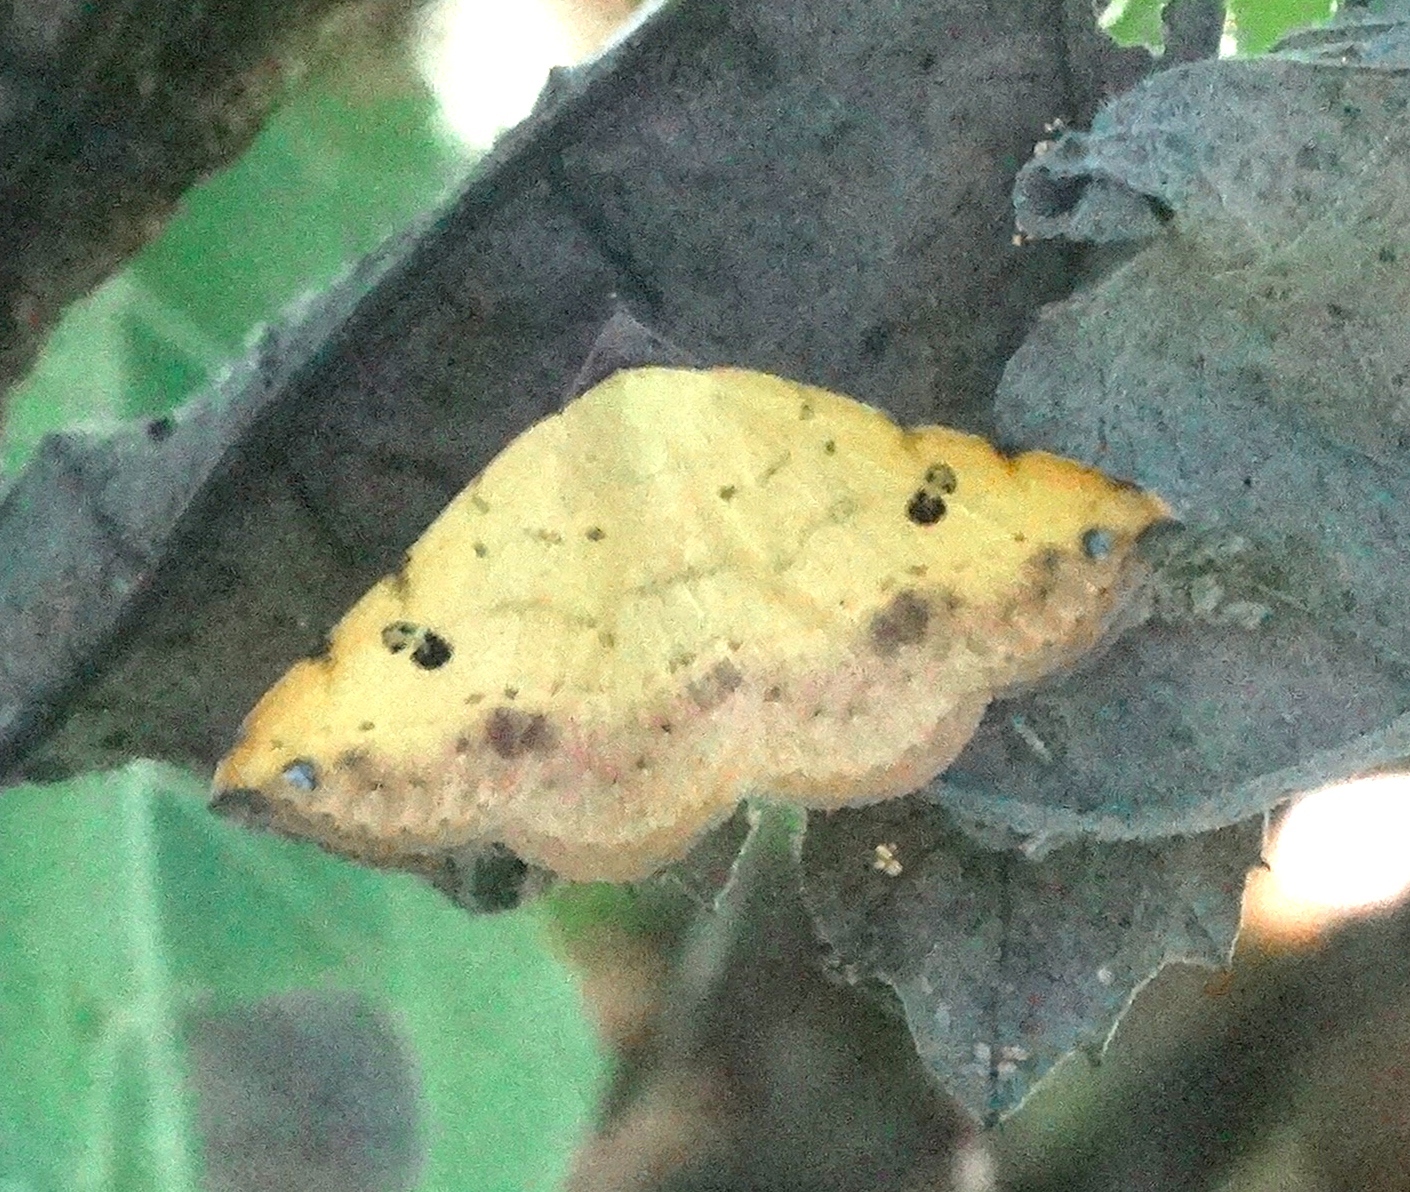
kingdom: Animalia
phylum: Arthropoda
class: Insecta
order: Lepidoptera
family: Erebidae
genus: Hemeroplanis
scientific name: Hemeroplanis
